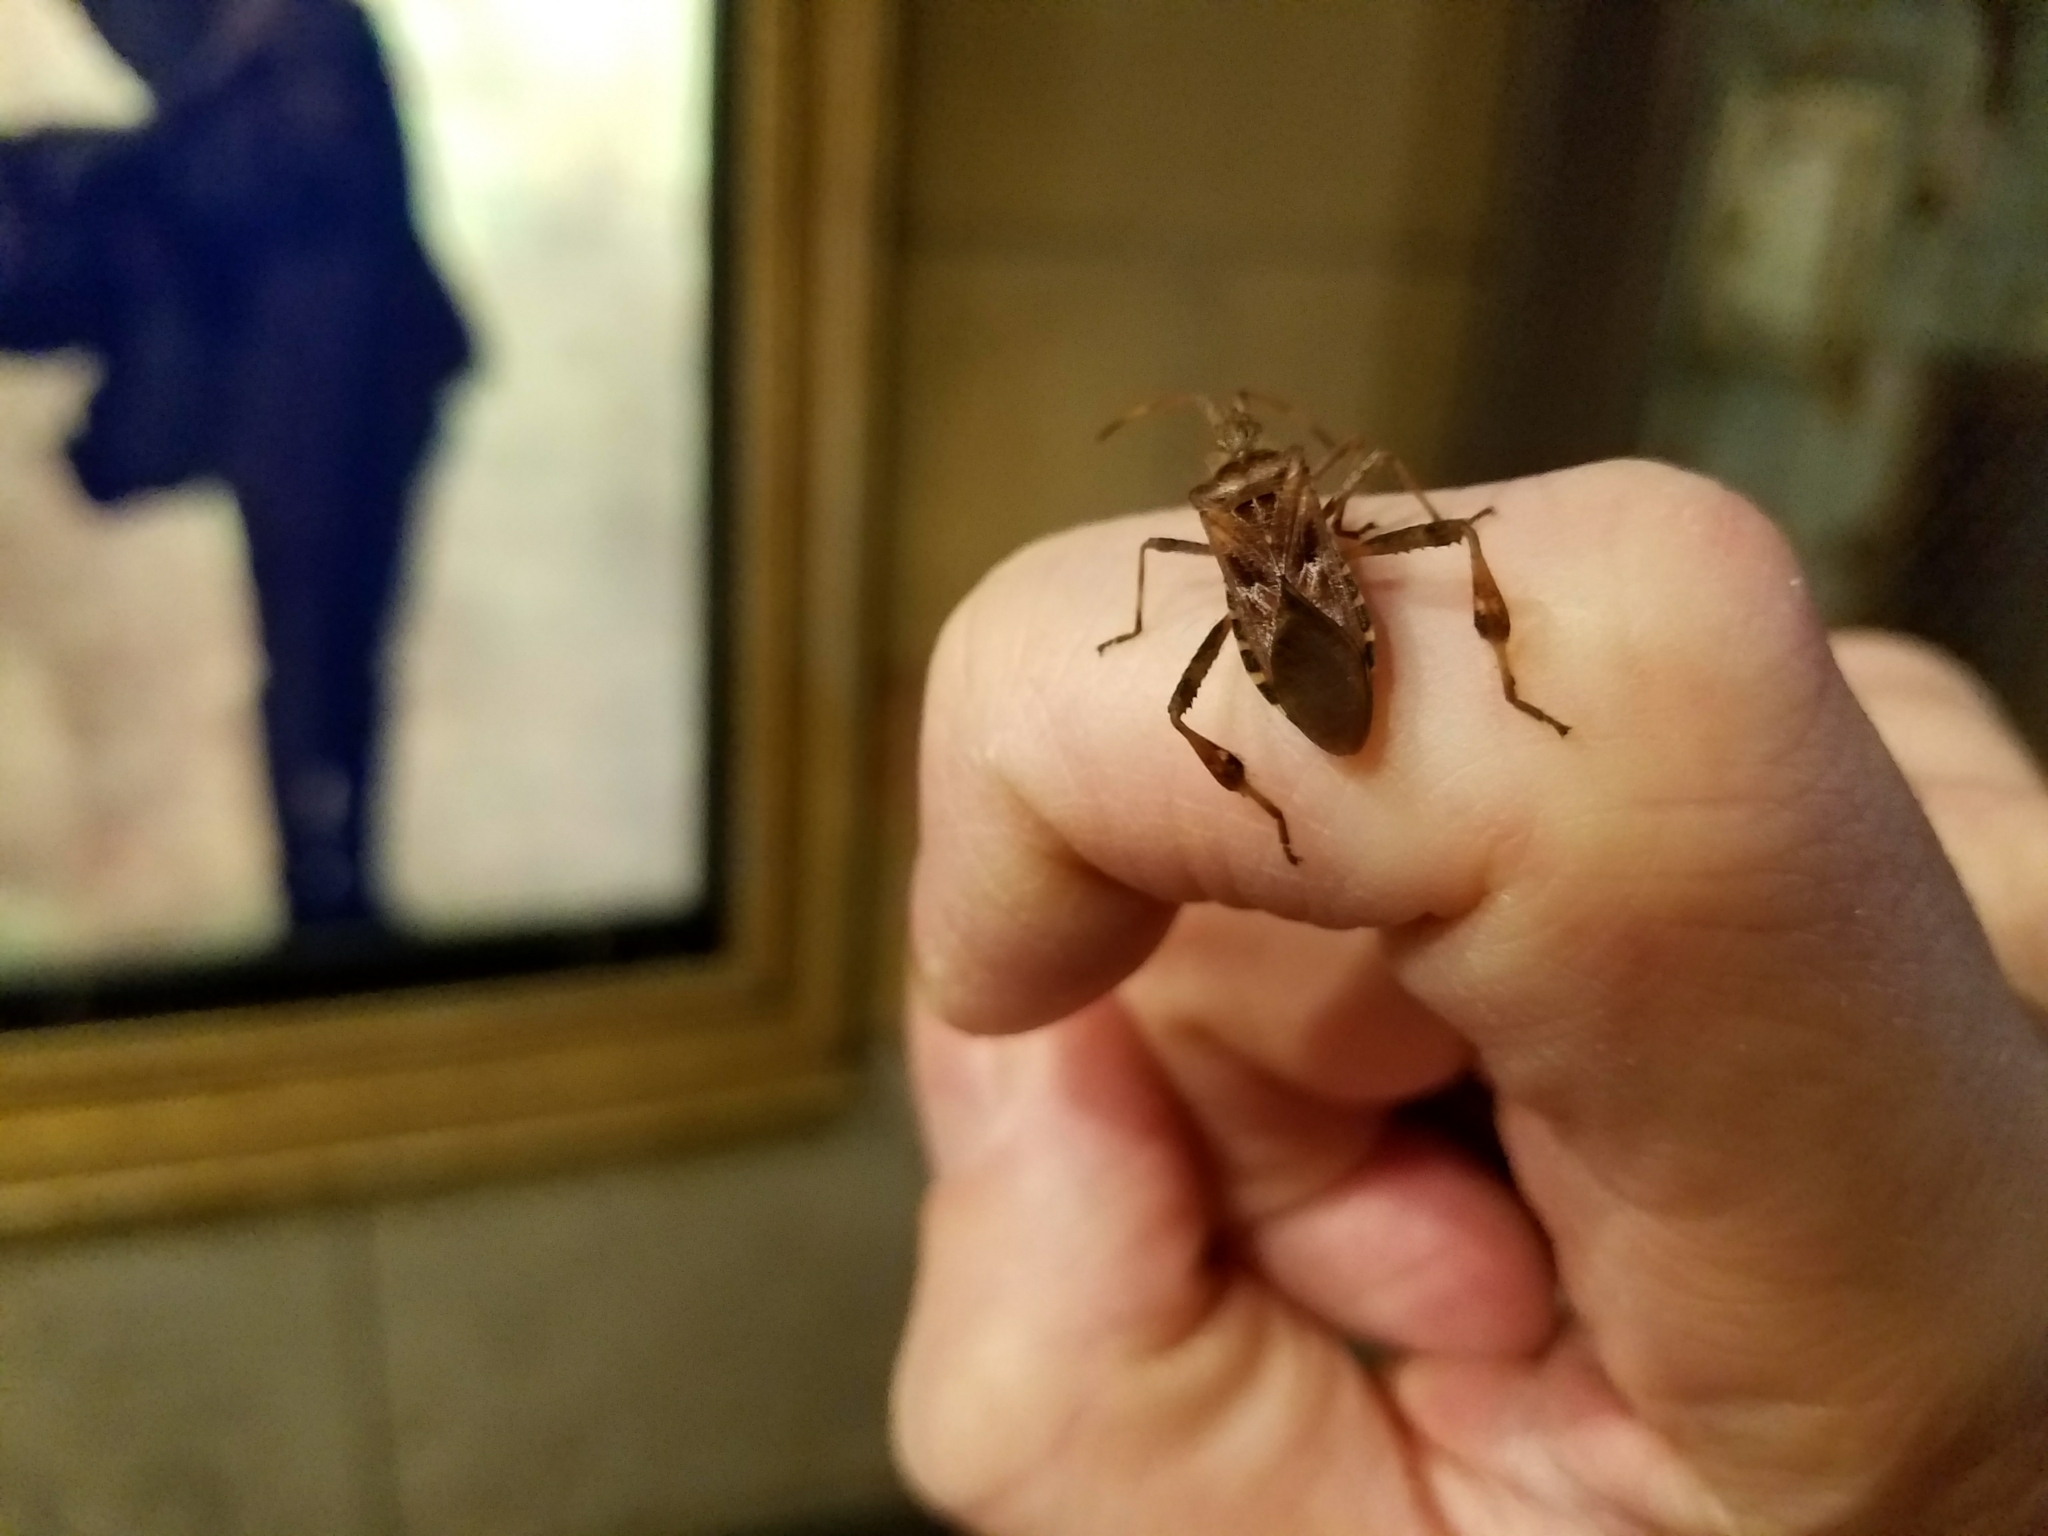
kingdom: Animalia
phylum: Arthropoda
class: Insecta
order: Hemiptera
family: Coreidae
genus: Leptoglossus
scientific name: Leptoglossus occidentalis
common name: Western conifer-seed bug
